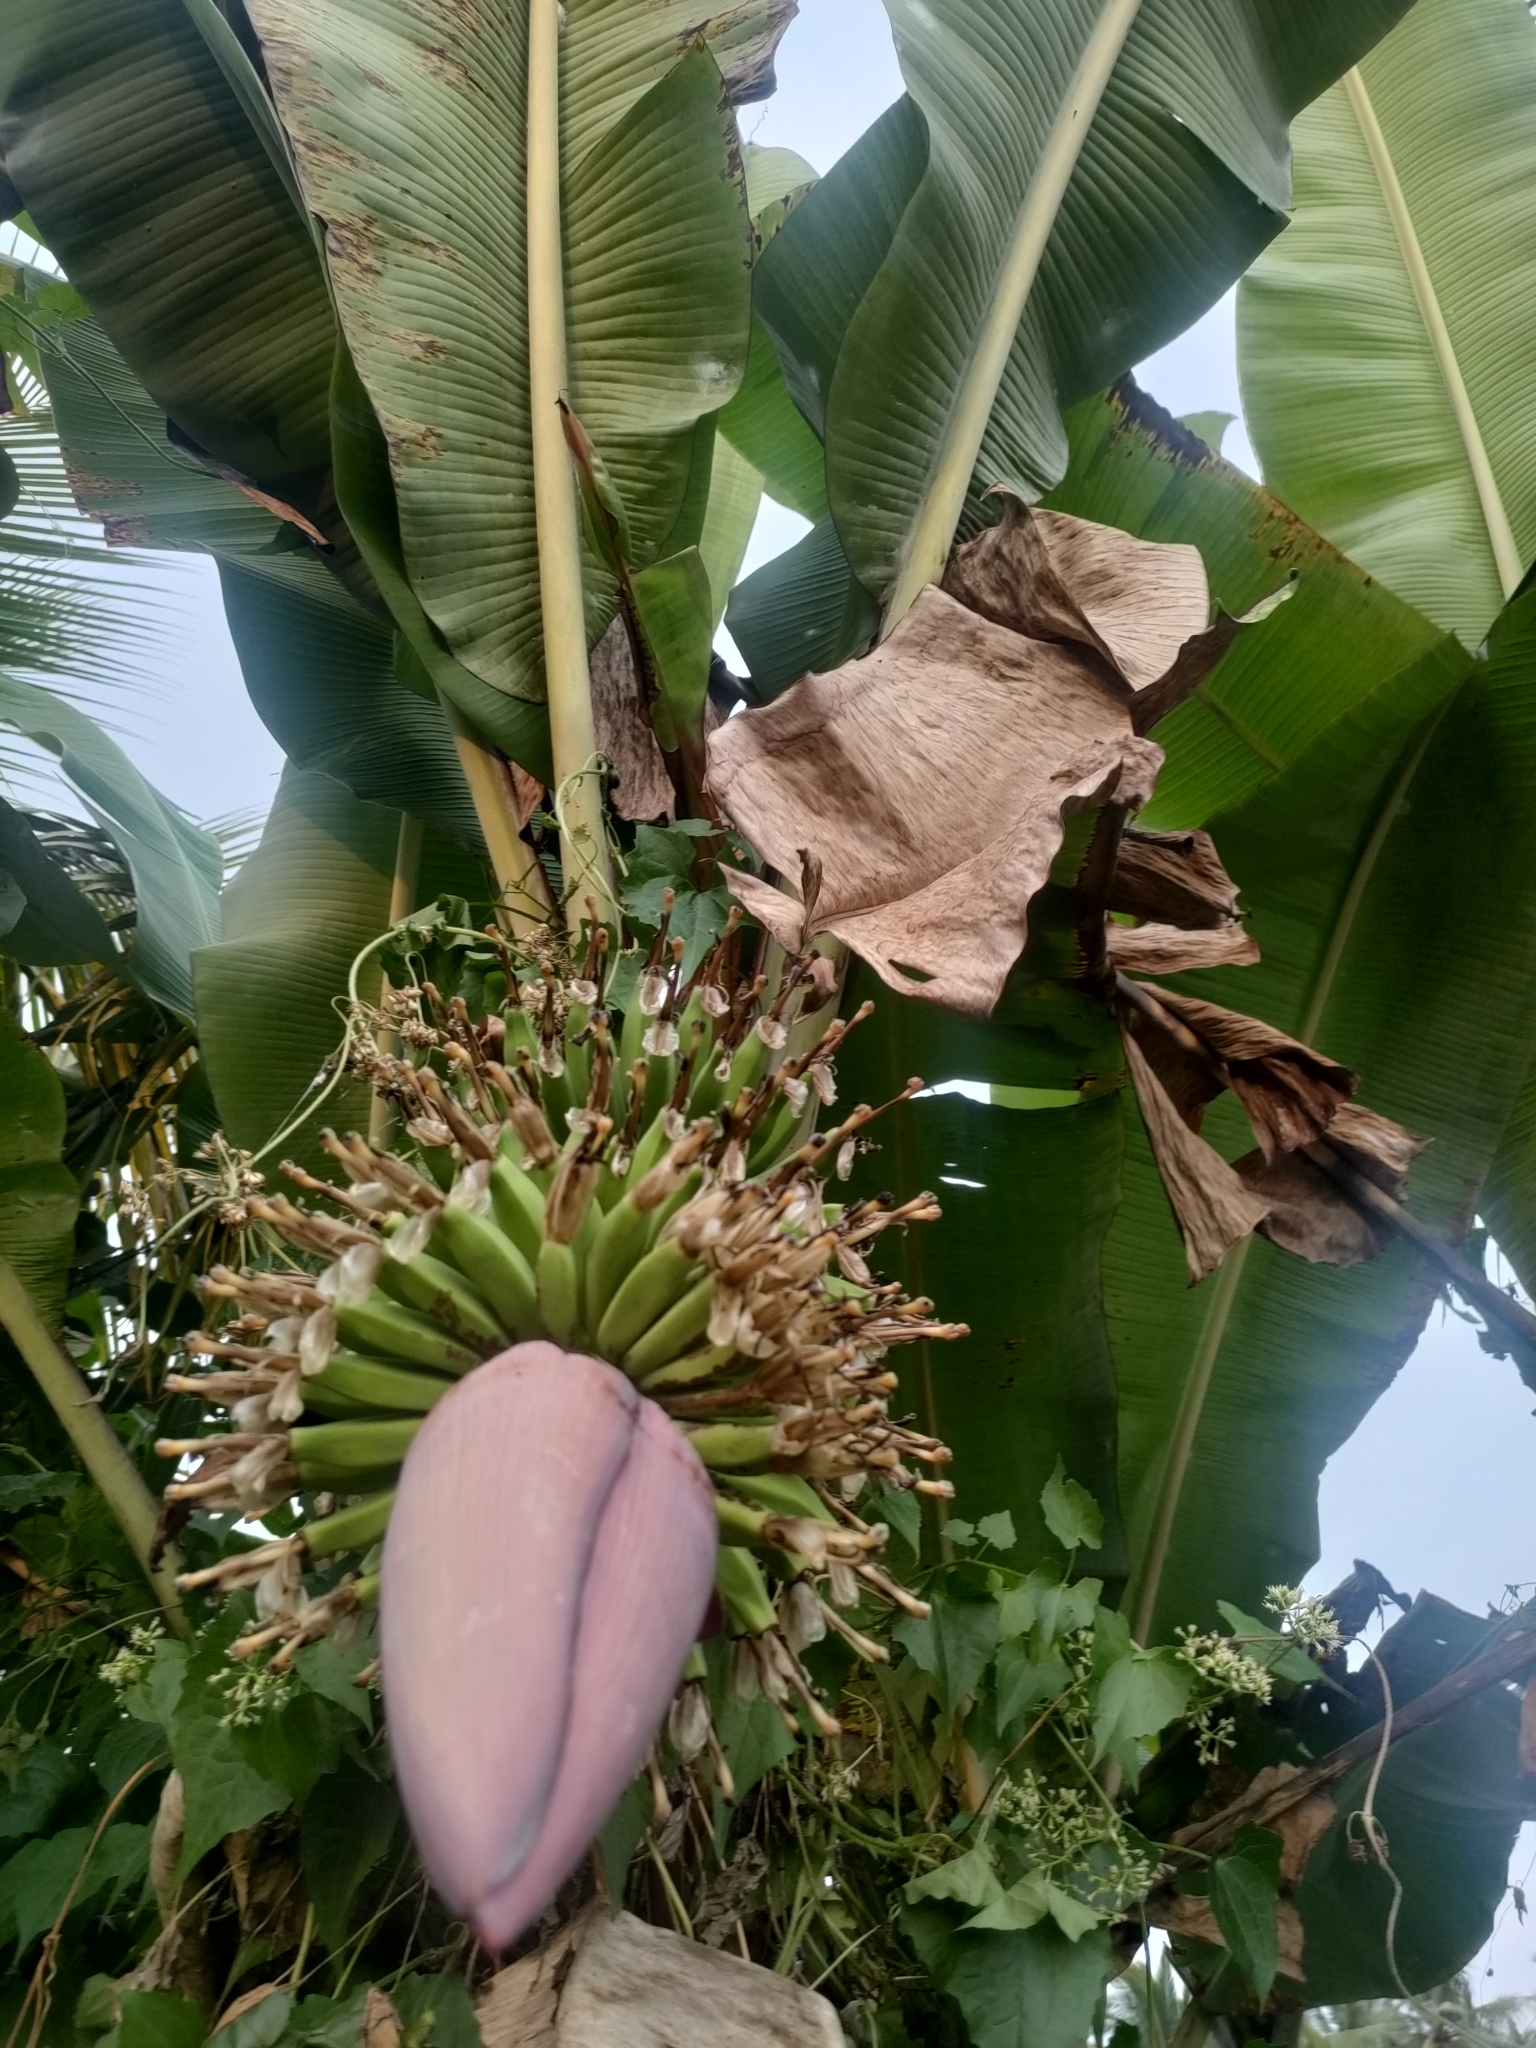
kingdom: Plantae
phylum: Tracheophyta
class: Liliopsida
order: Zingiberales
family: Musaceae
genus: Musa
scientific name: Musa acuminata
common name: Edible banana
